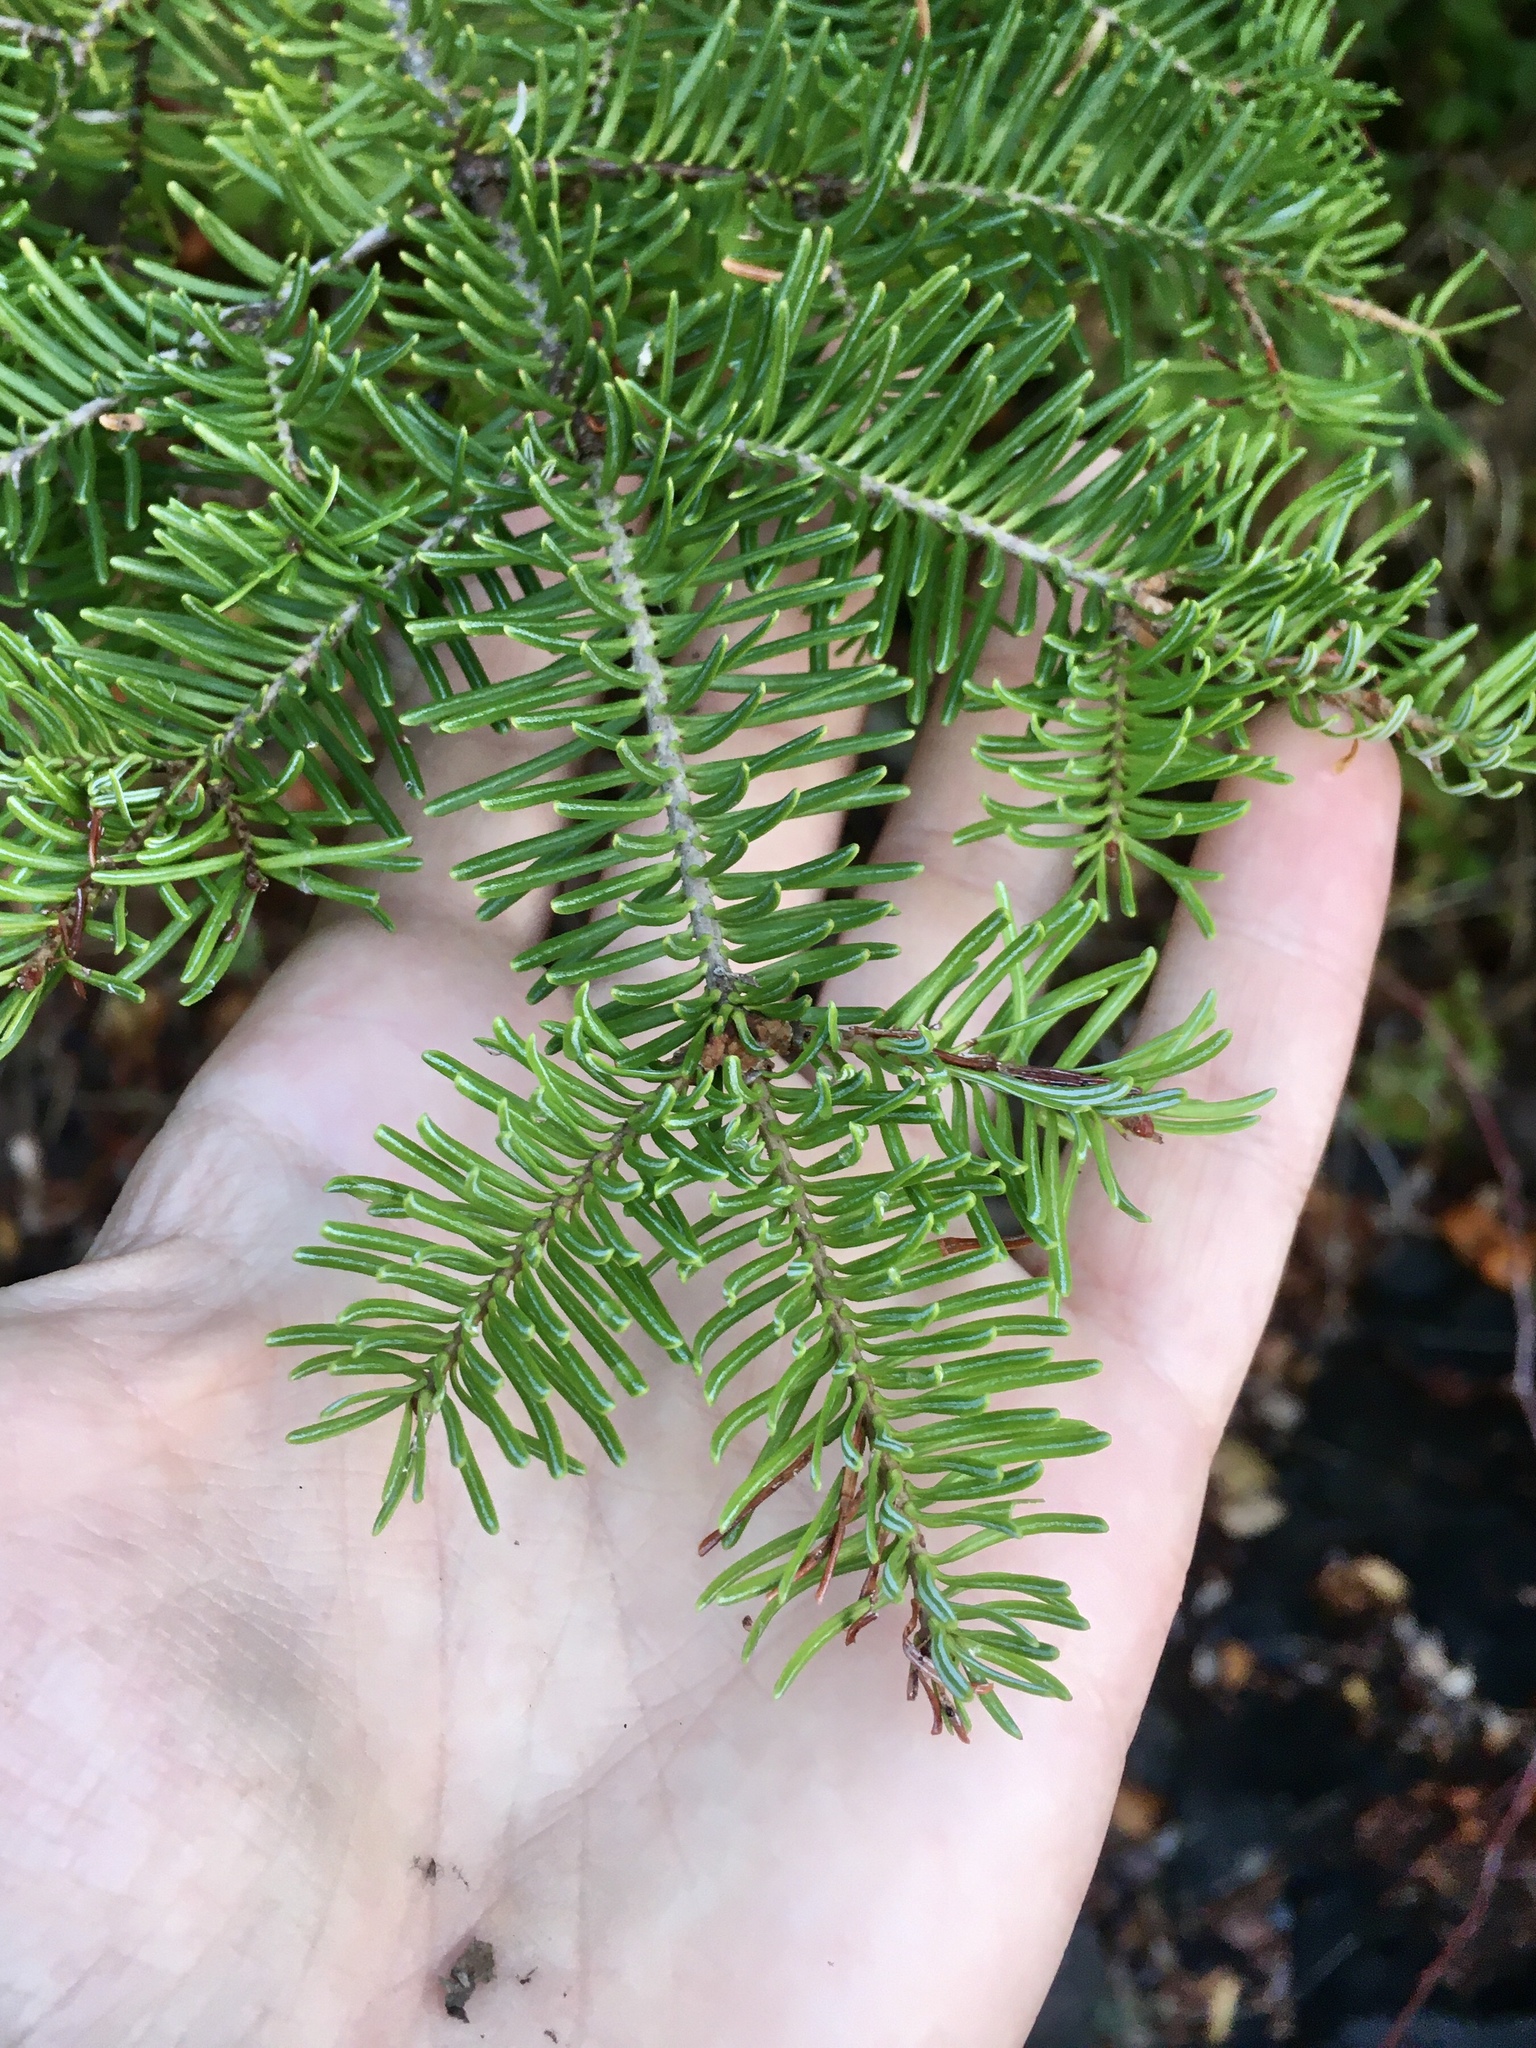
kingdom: Plantae
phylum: Tracheophyta
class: Pinopsida
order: Pinales
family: Pinaceae
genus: Abies
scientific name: Abies balsamea
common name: Balsam fir
